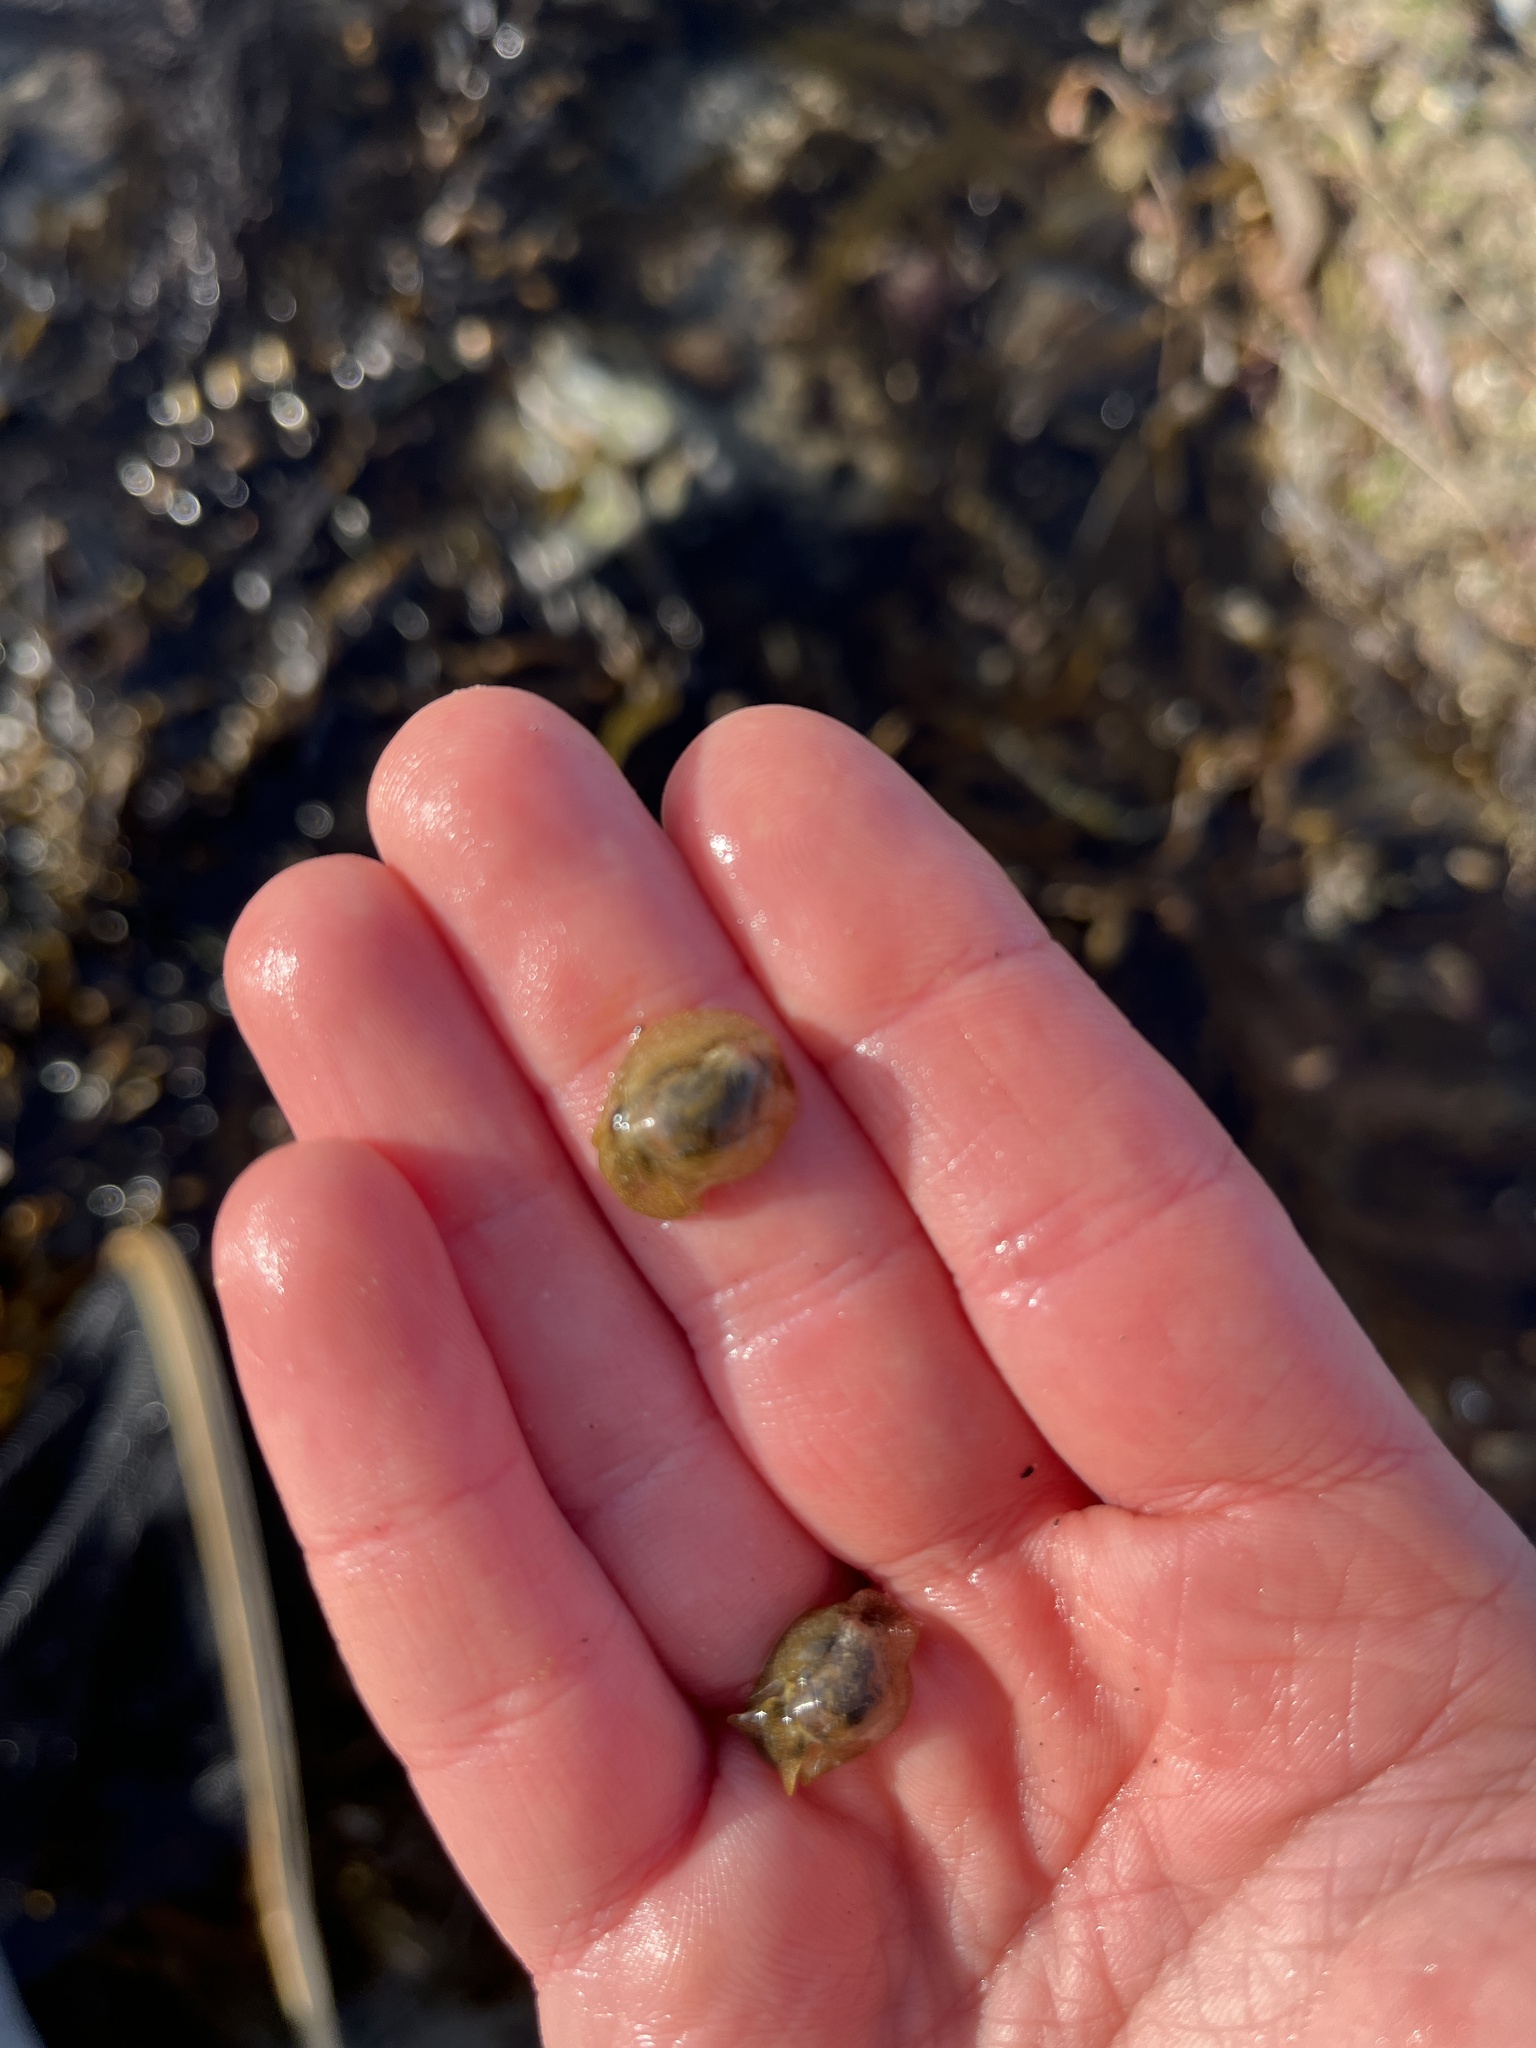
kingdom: Animalia
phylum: Mollusca
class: Gastropoda
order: Cephalaspidea
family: Haminoeidae
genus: Haminoea
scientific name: Haminoea virescens
